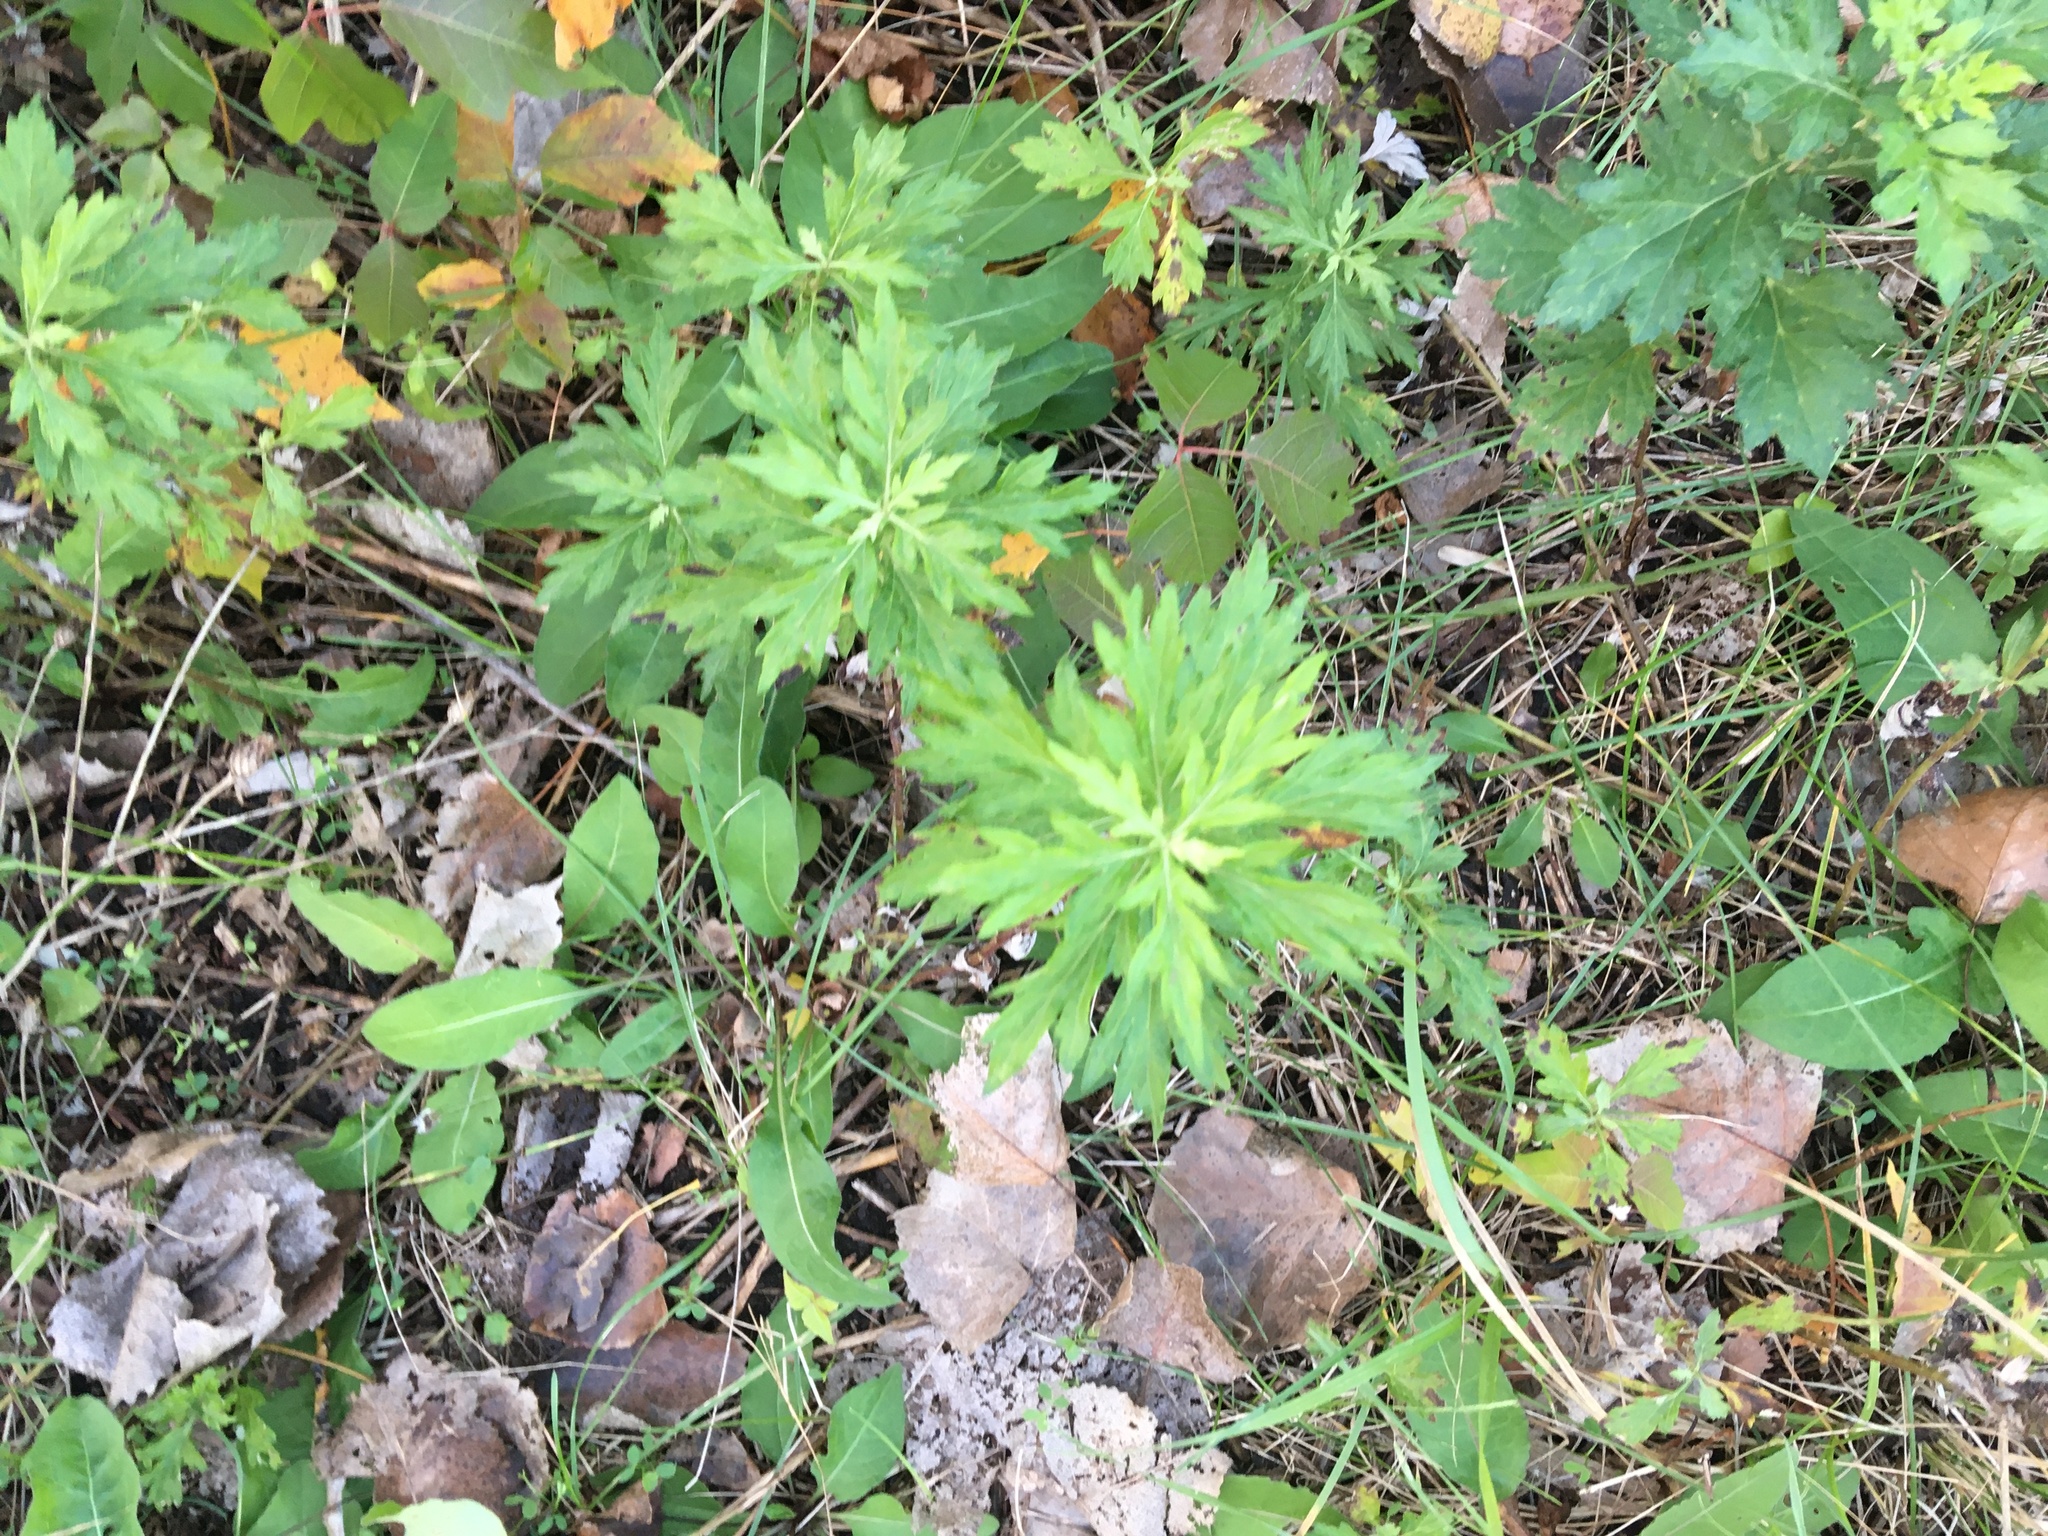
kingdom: Plantae
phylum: Tracheophyta
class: Magnoliopsida
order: Asterales
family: Asteraceae
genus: Artemisia
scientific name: Artemisia vulgaris
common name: Mugwort
